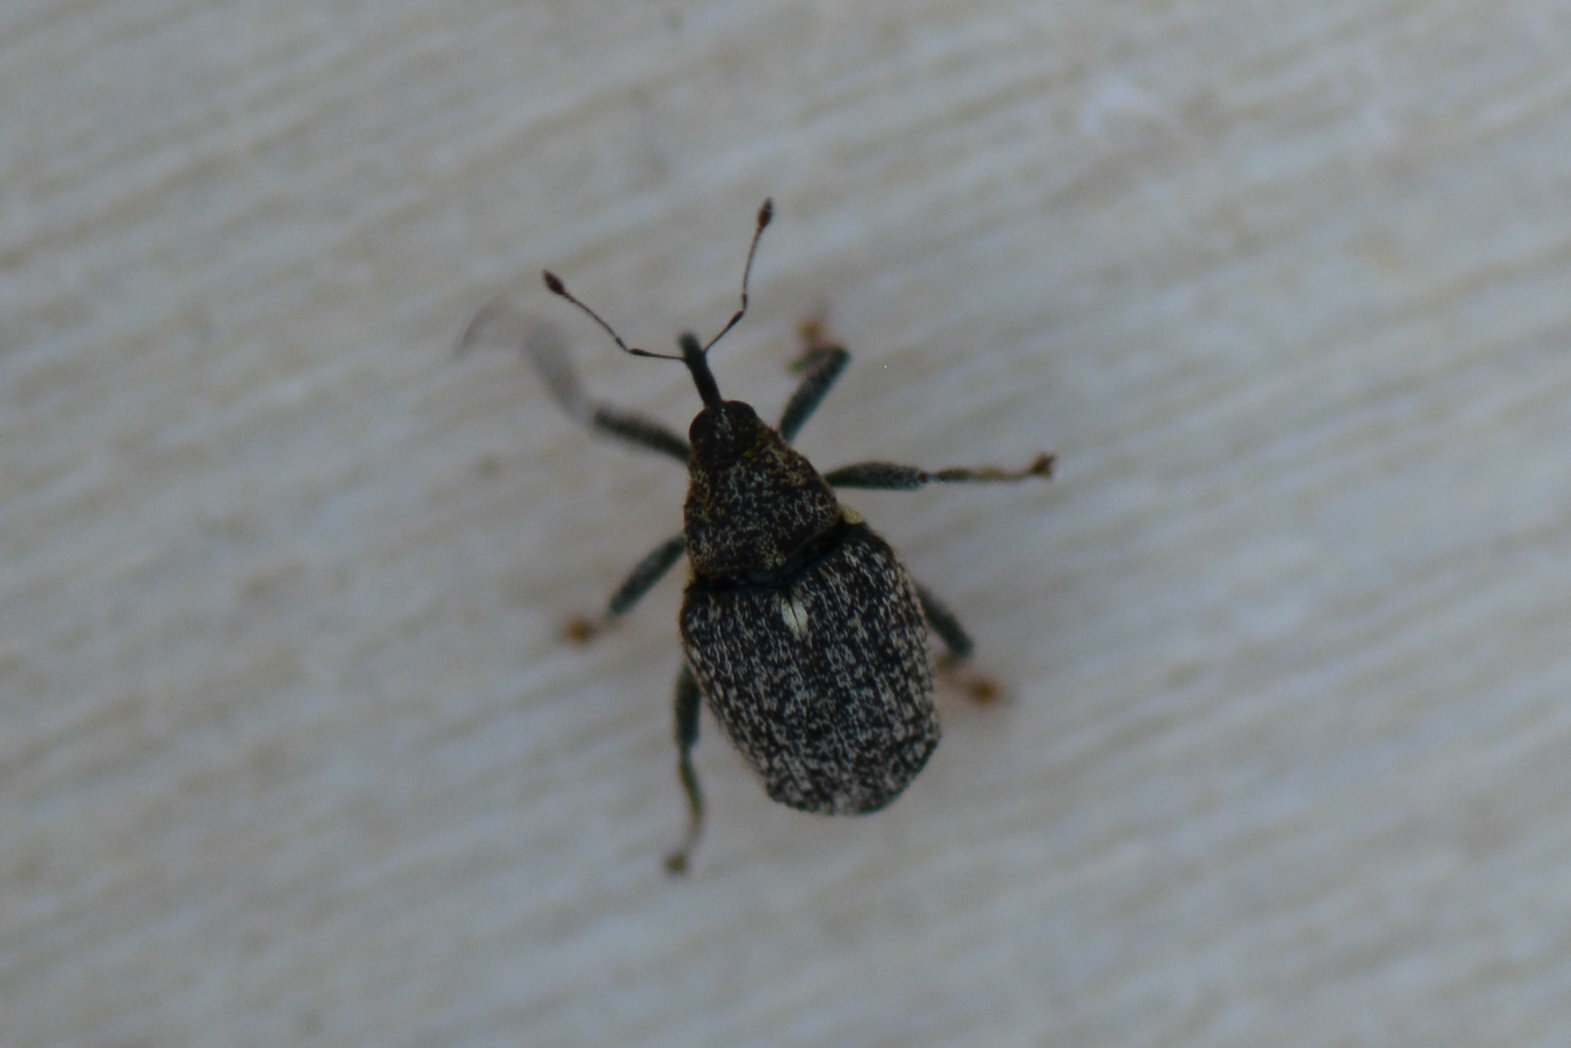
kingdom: Animalia
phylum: Arthropoda
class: Insecta
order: Coleoptera
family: Curculionidae
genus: Ceutorhynchus
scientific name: Ceutorhynchus pallidactylus
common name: Cabbage stem weavil
